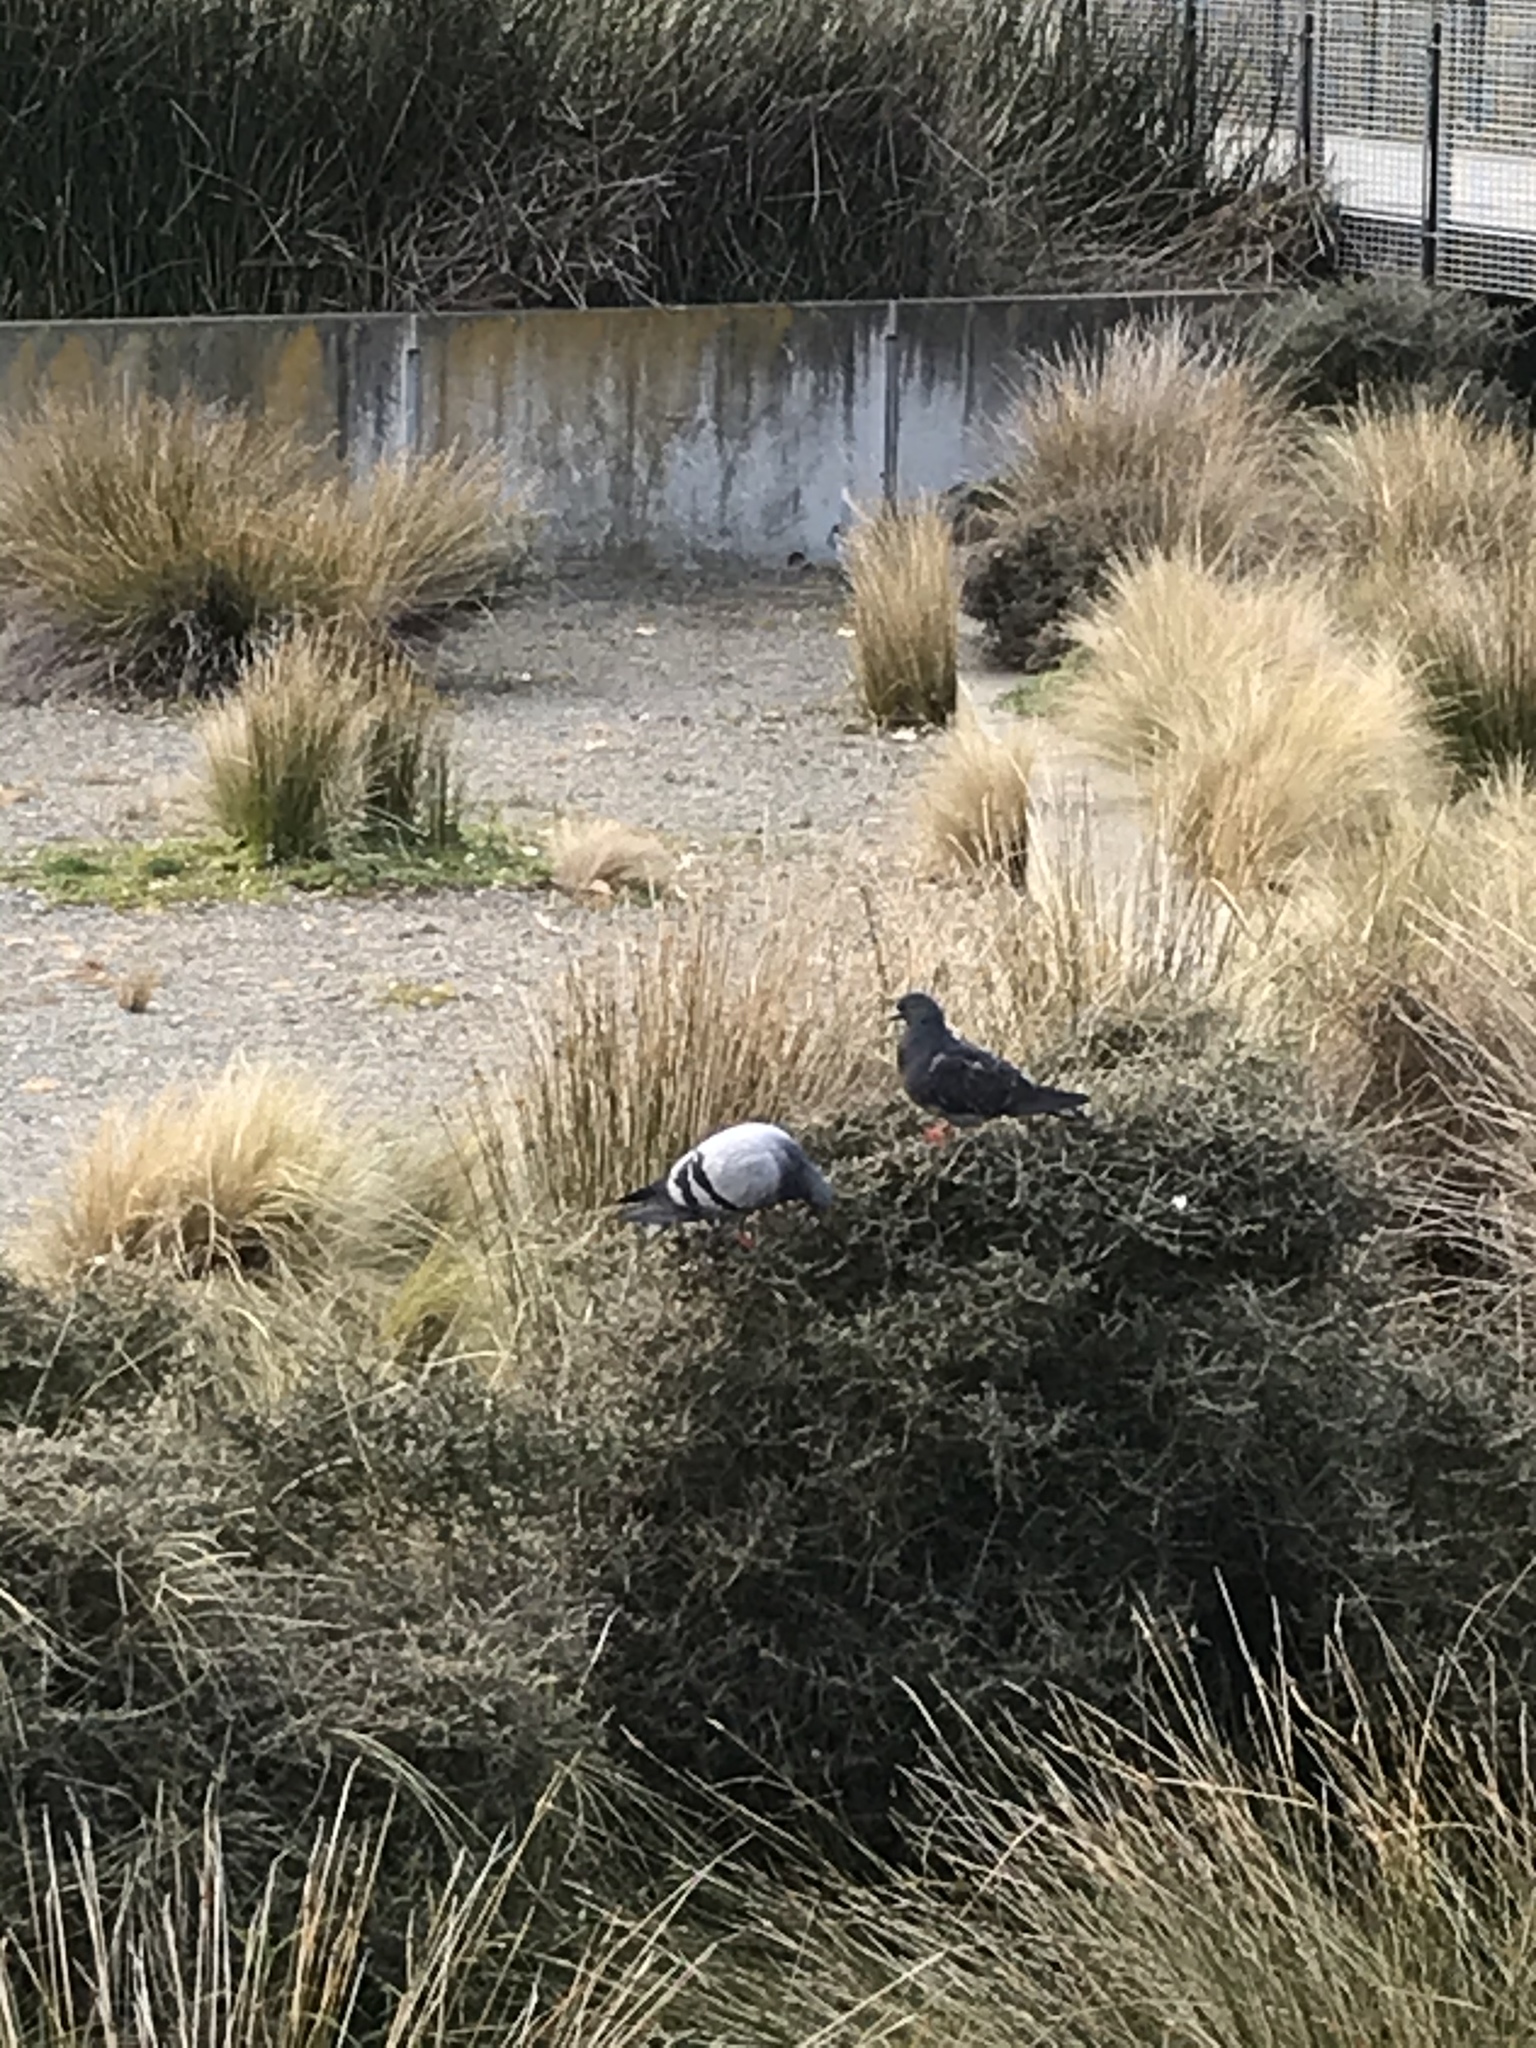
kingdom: Animalia
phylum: Chordata
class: Aves
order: Columbiformes
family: Columbidae
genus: Columba
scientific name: Columba livia
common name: Rock pigeon
